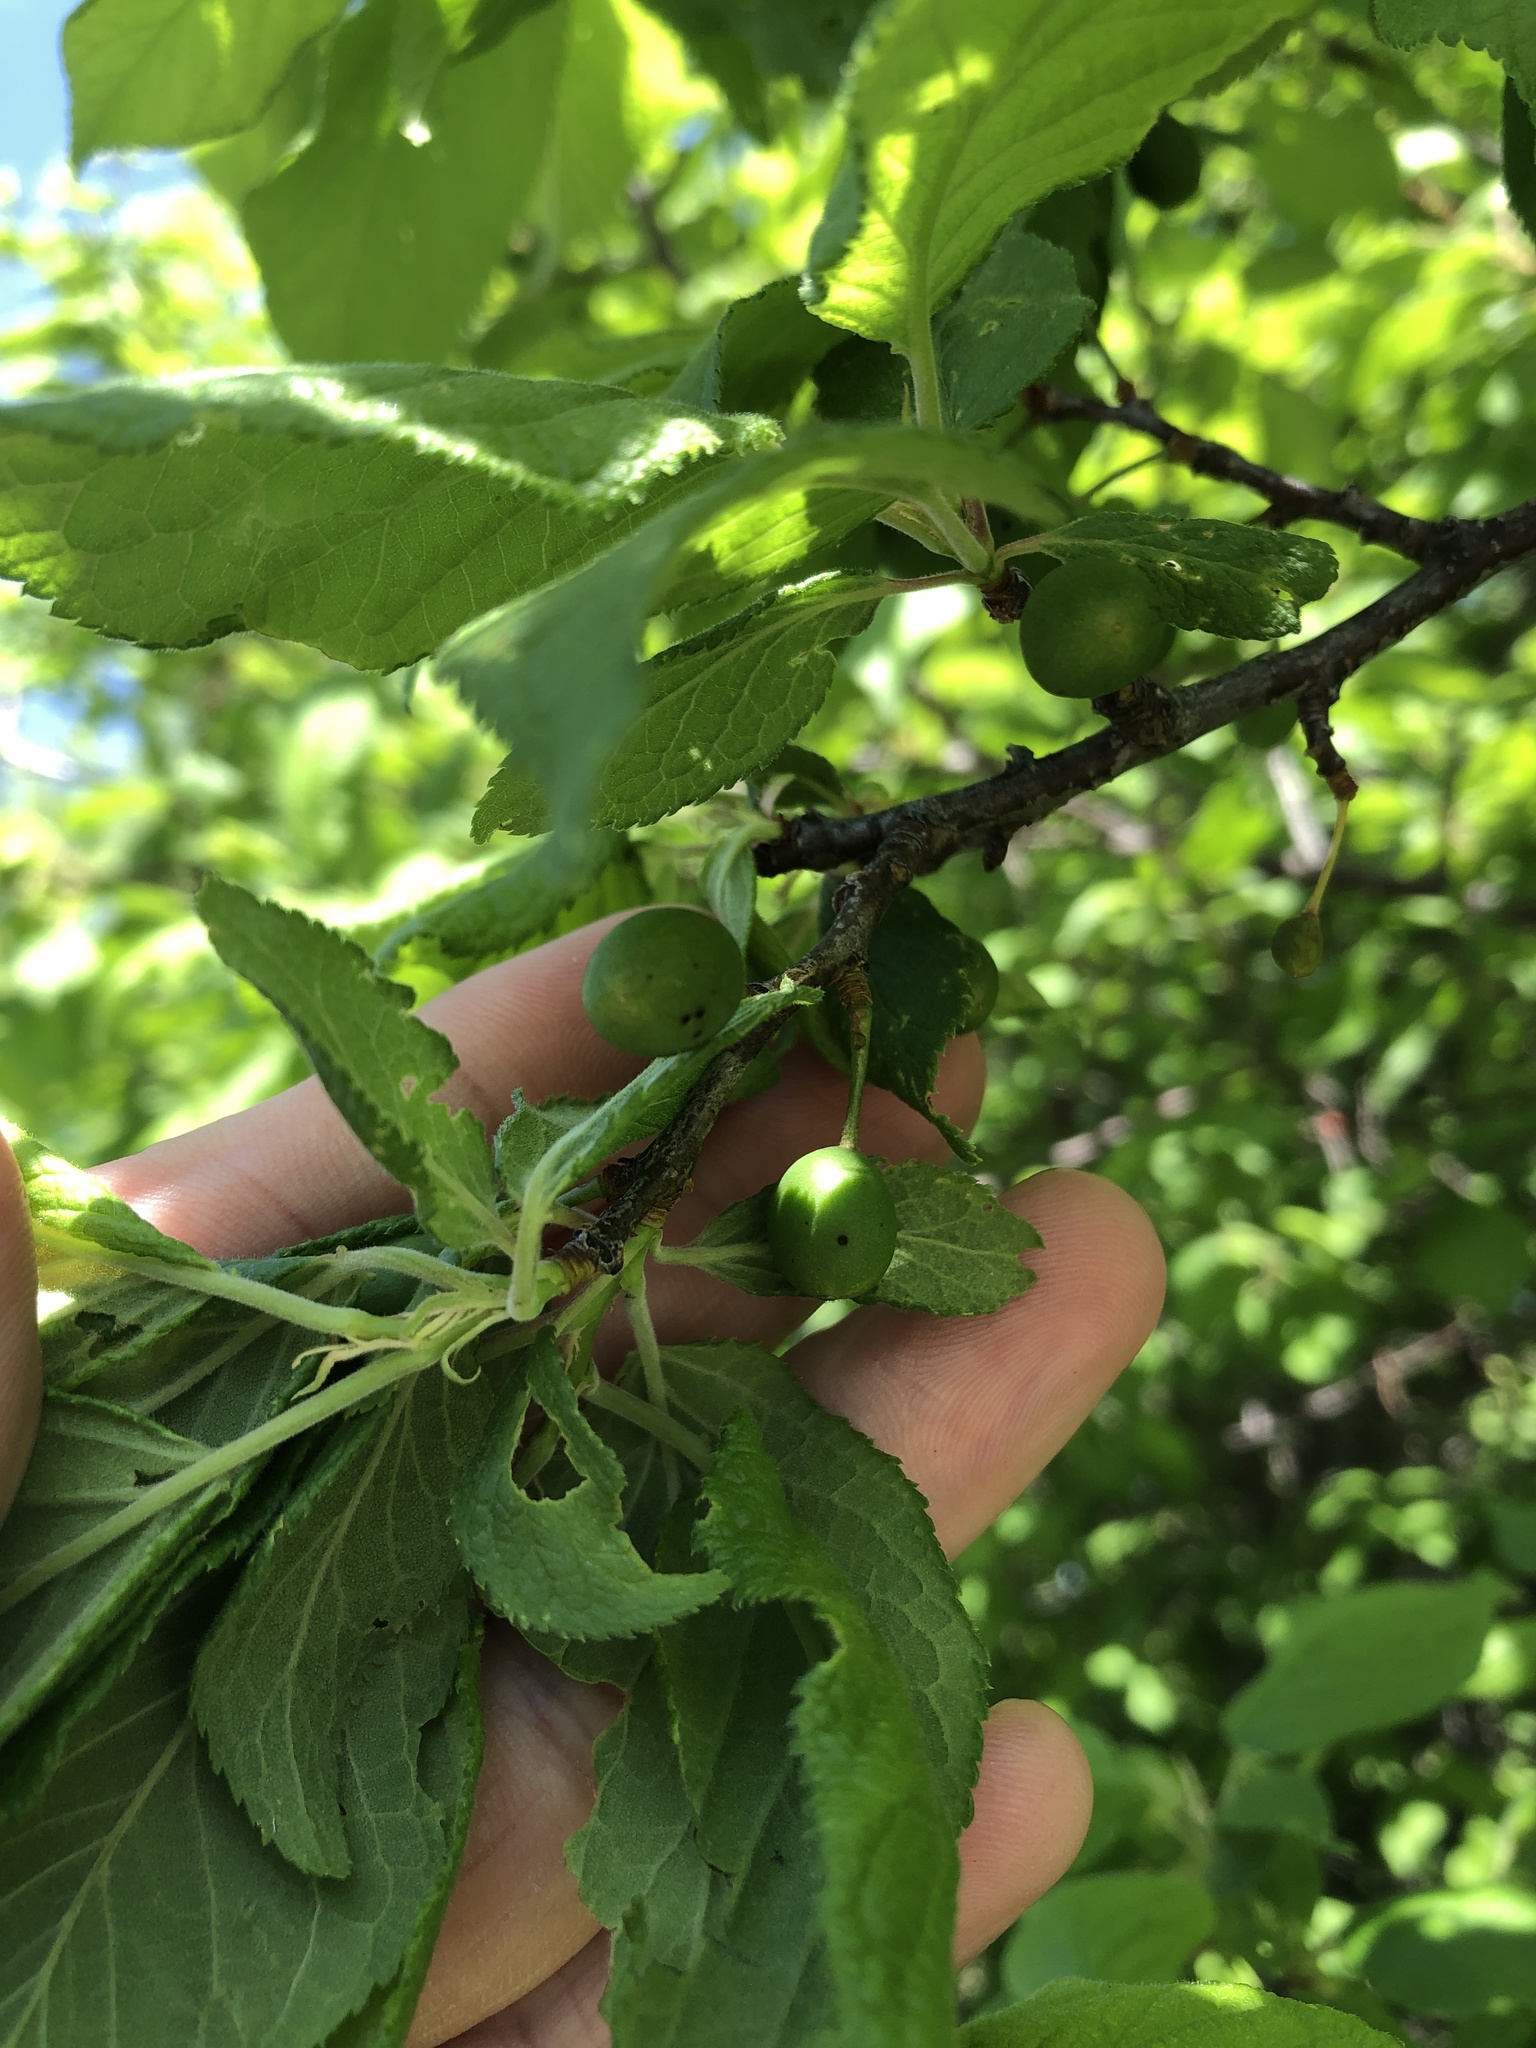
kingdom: Plantae
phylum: Tracheophyta
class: Magnoliopsida
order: Rosales
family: Rosaceae
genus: Prunus
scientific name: Prunus mexicana
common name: Mexican plum
